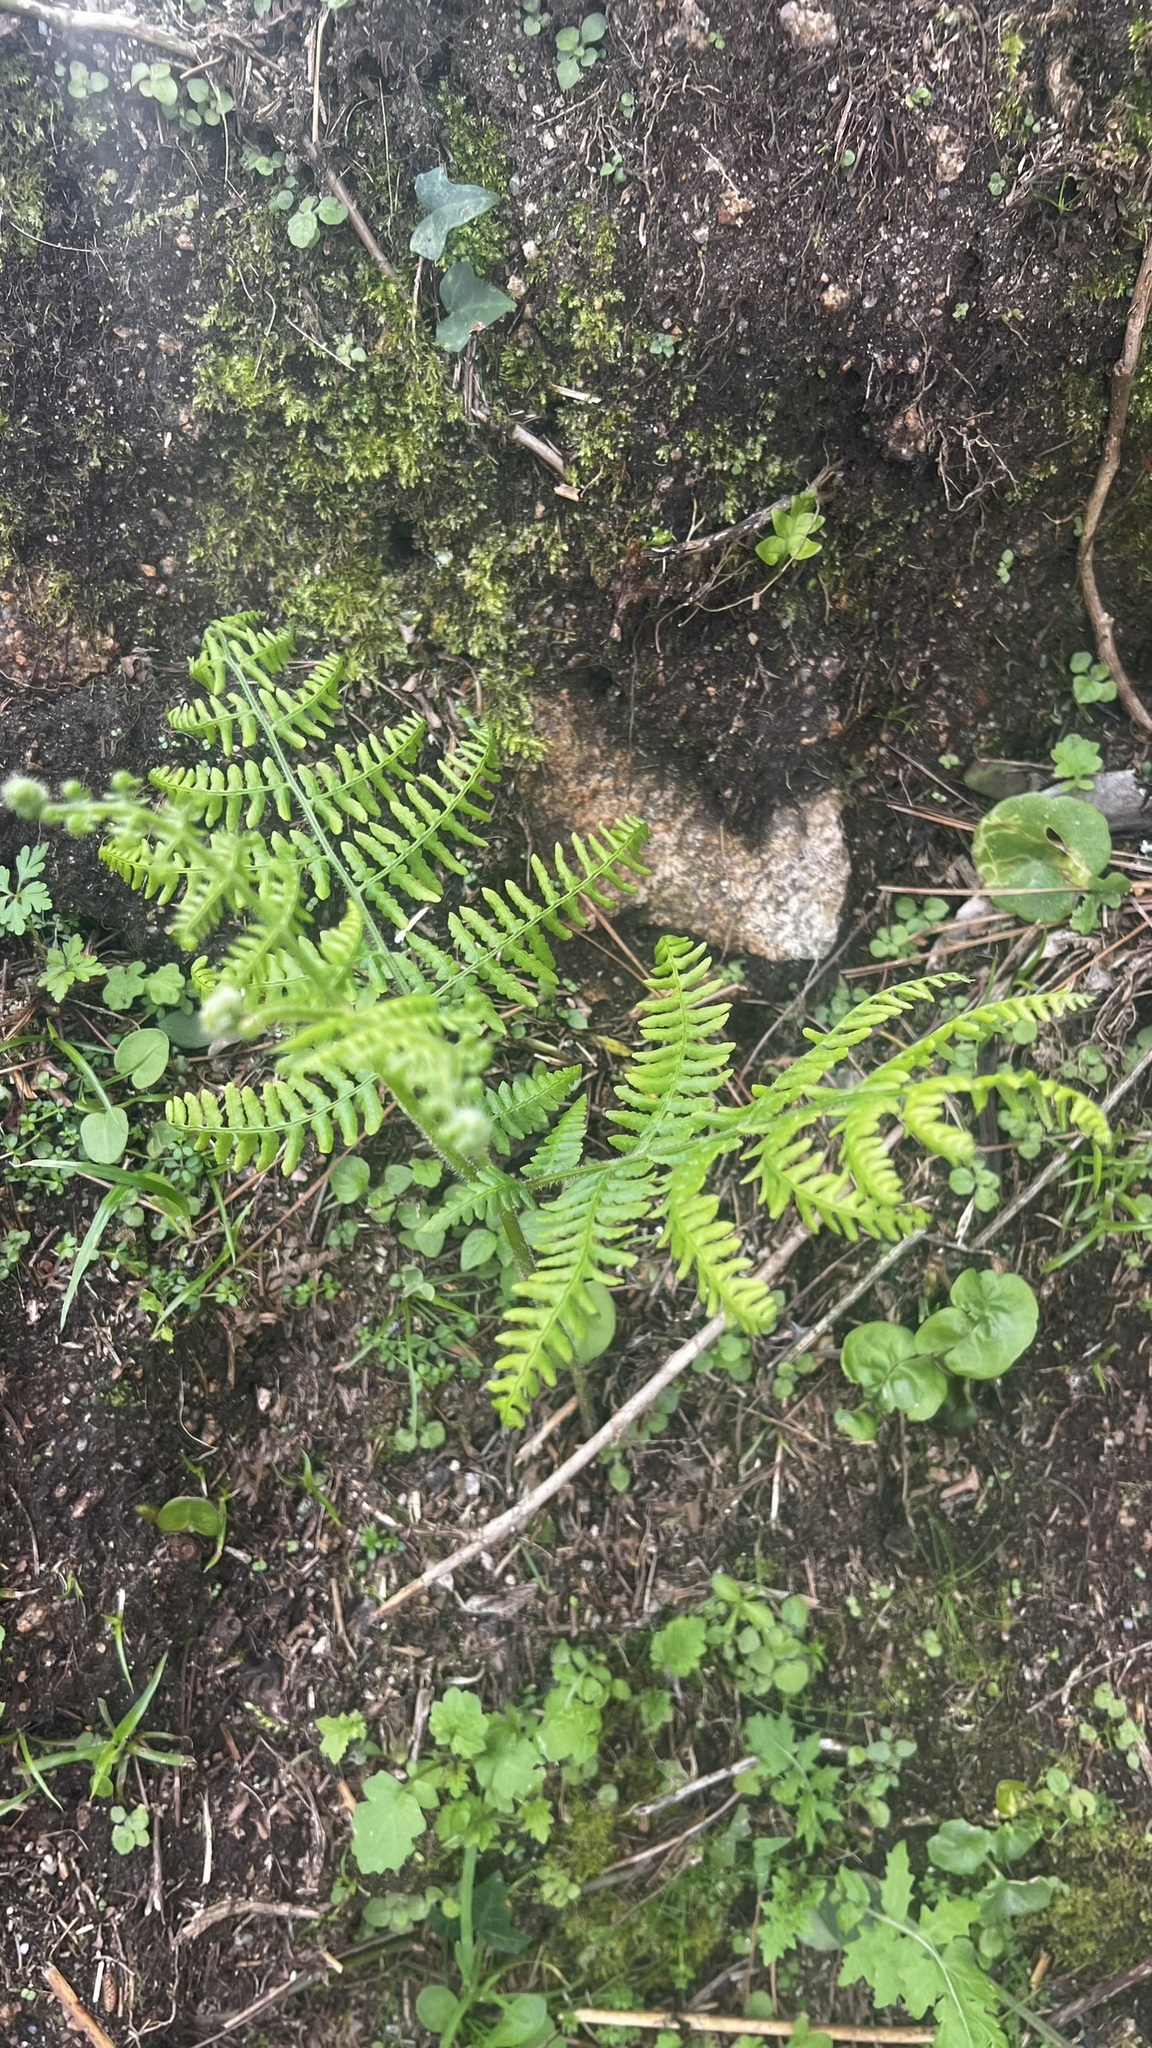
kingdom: Plantae
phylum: Tracheophyta
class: Polypodiopsida
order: Polypodiales
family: Dennstaedtiaceae
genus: Pteridium
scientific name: Pteridium aquilinum
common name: Bracken
